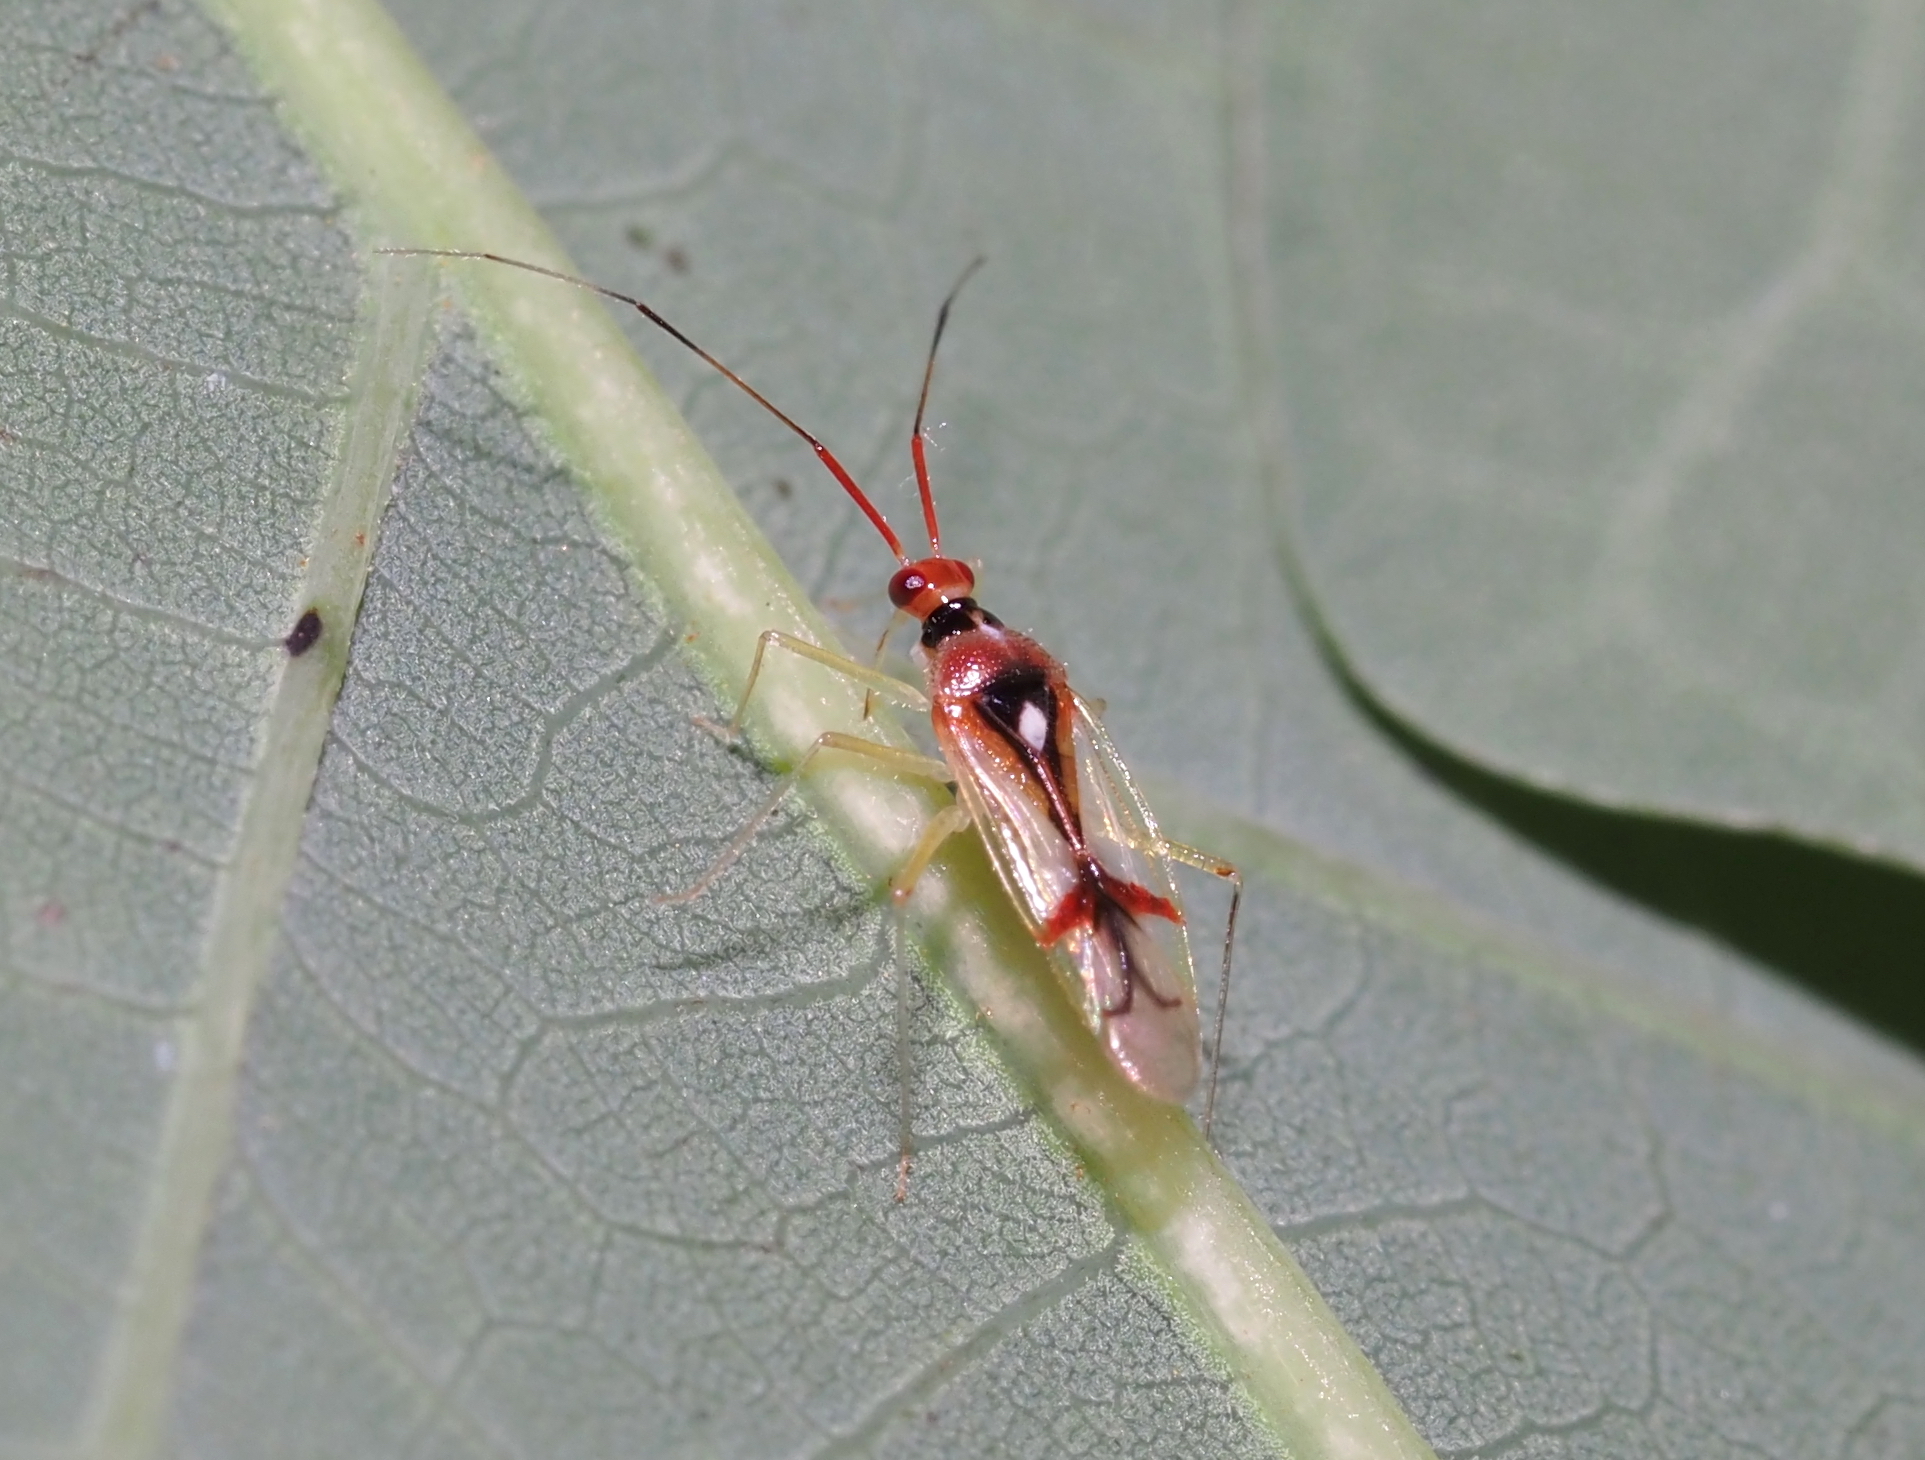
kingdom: Animalia
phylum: Arthropoda
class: Insecta
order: Hemiptera
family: Miridae
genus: Hyaliodes
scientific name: Hyaliodes harti
